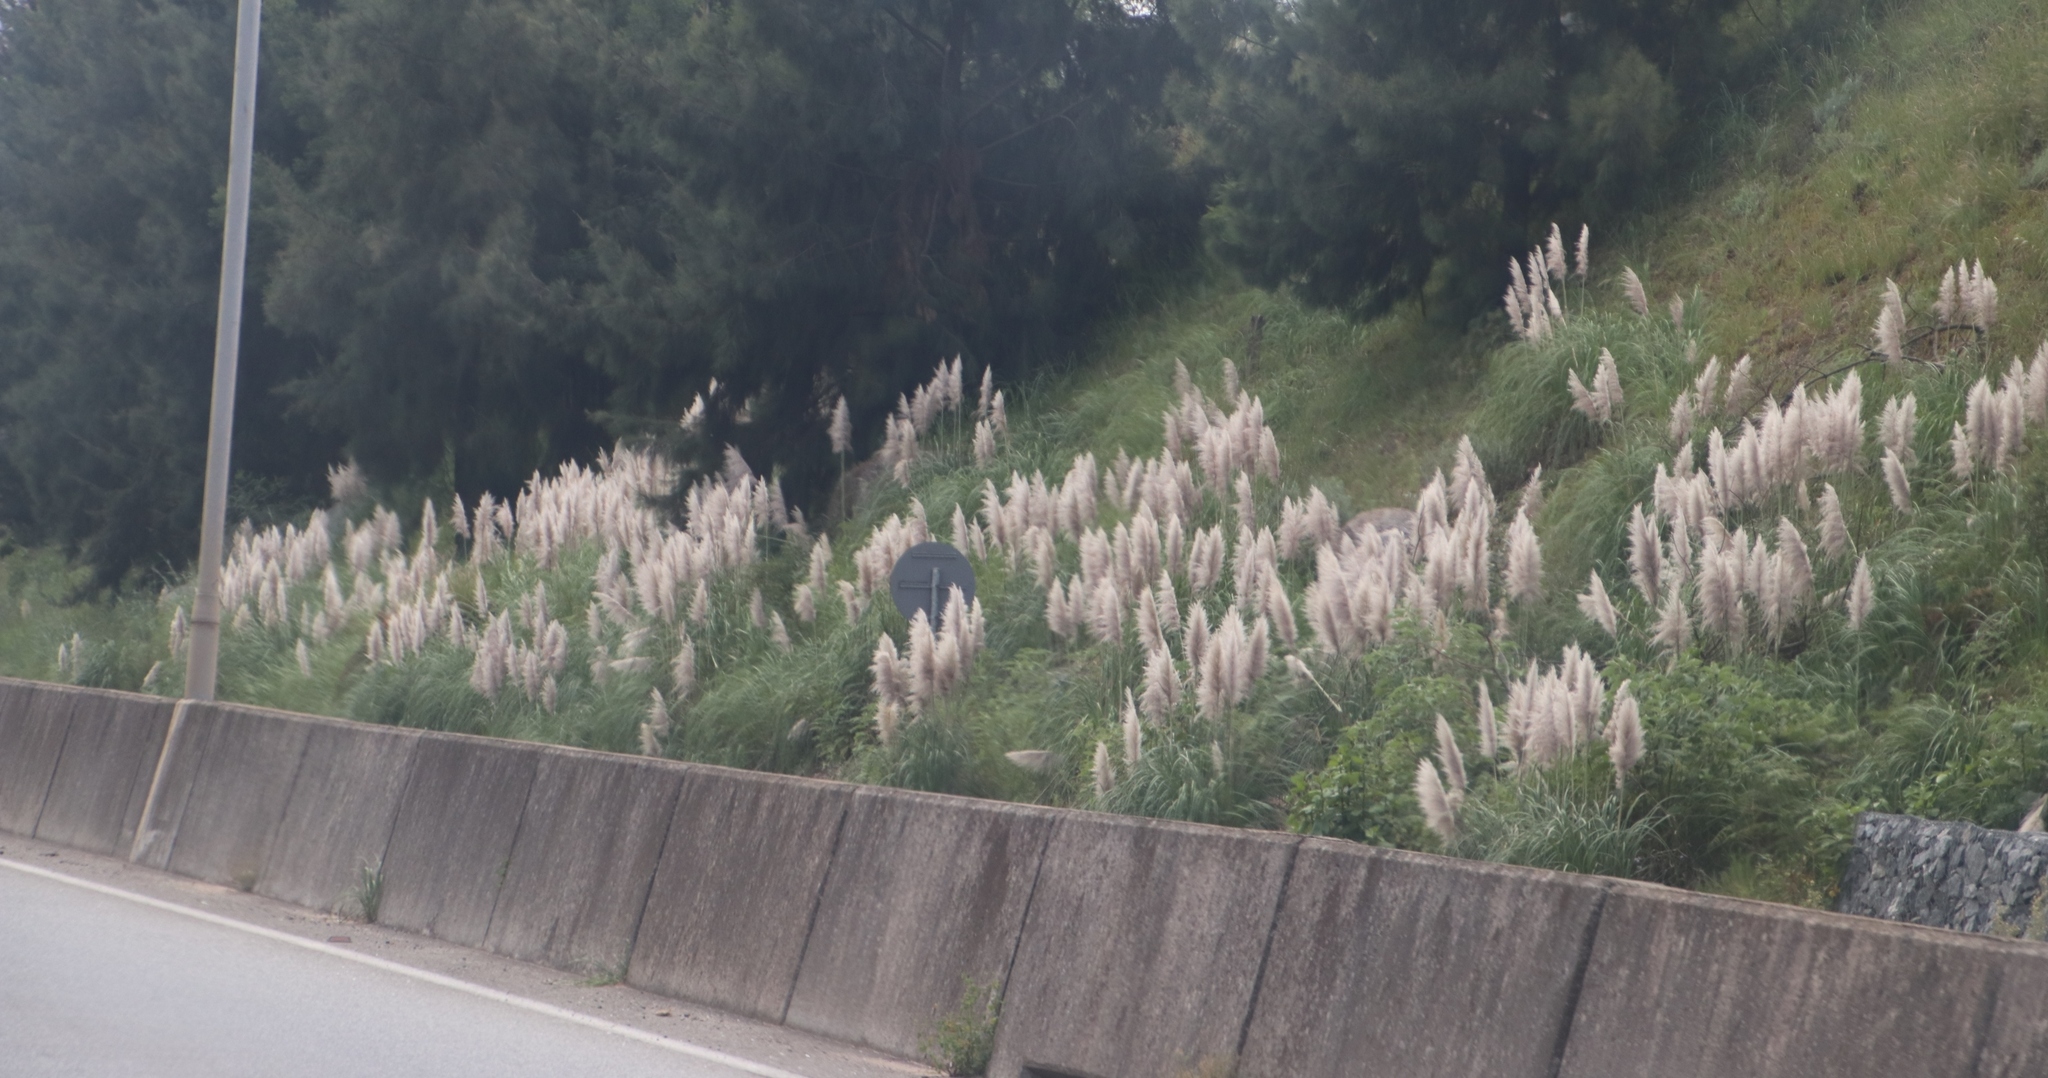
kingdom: Plantae
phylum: Tracheophyta
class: Liliopsida
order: Poales
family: Poaceae
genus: Cortaderia
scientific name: Cortaderia selloana
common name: Uruguayan pampas grass
